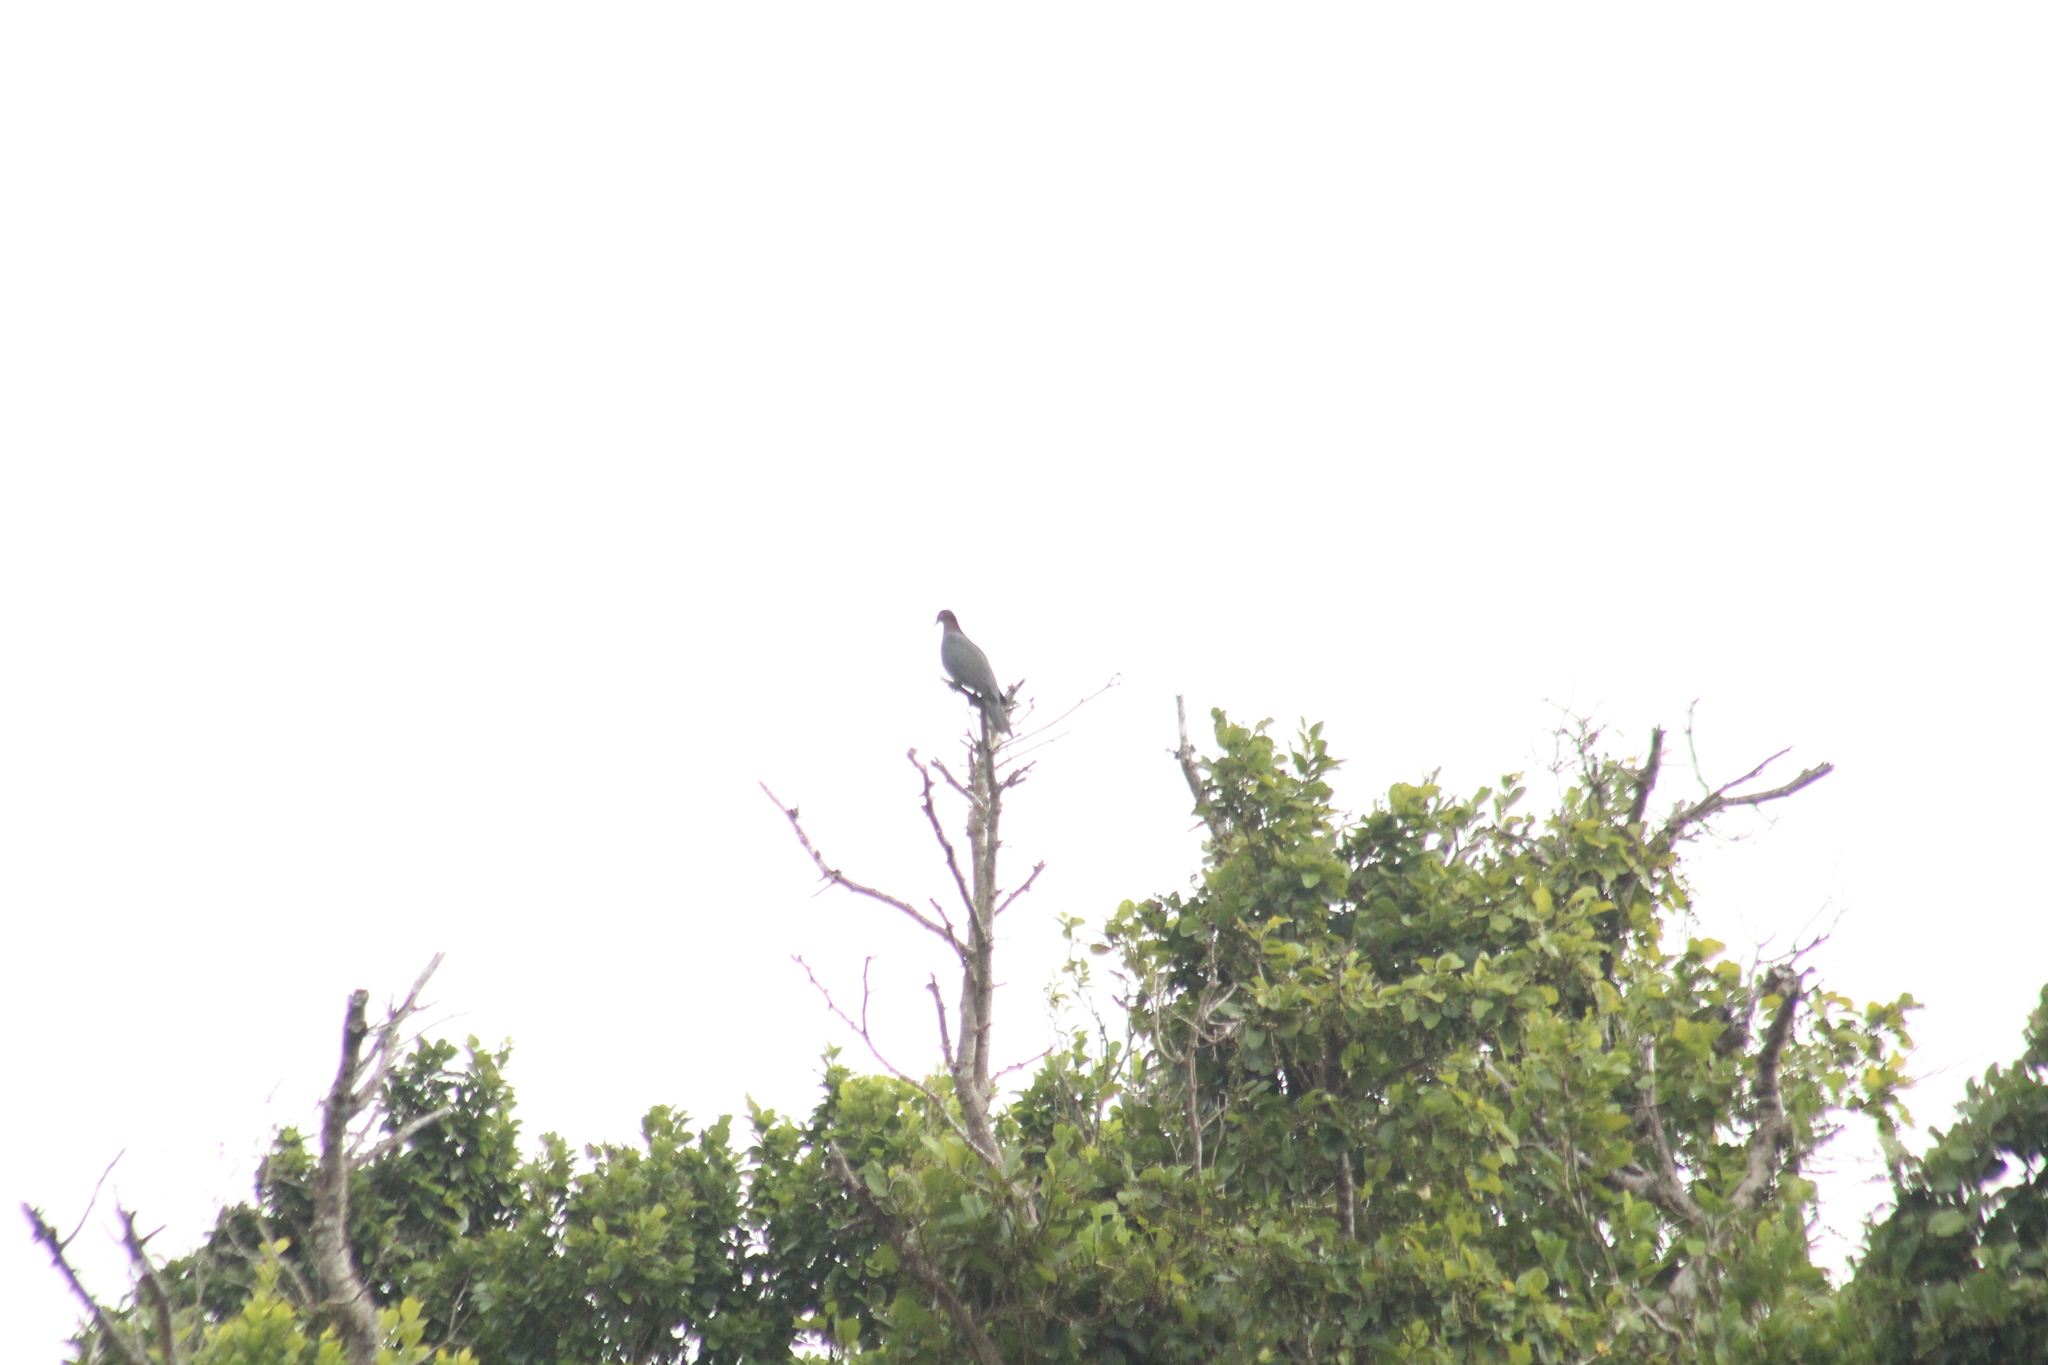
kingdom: Animalia
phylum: Chordata
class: Aves
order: Columbiformes
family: Columbidae
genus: Patagioenas
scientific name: Patagioenas squamosa
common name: Scaly-naped pigeon
